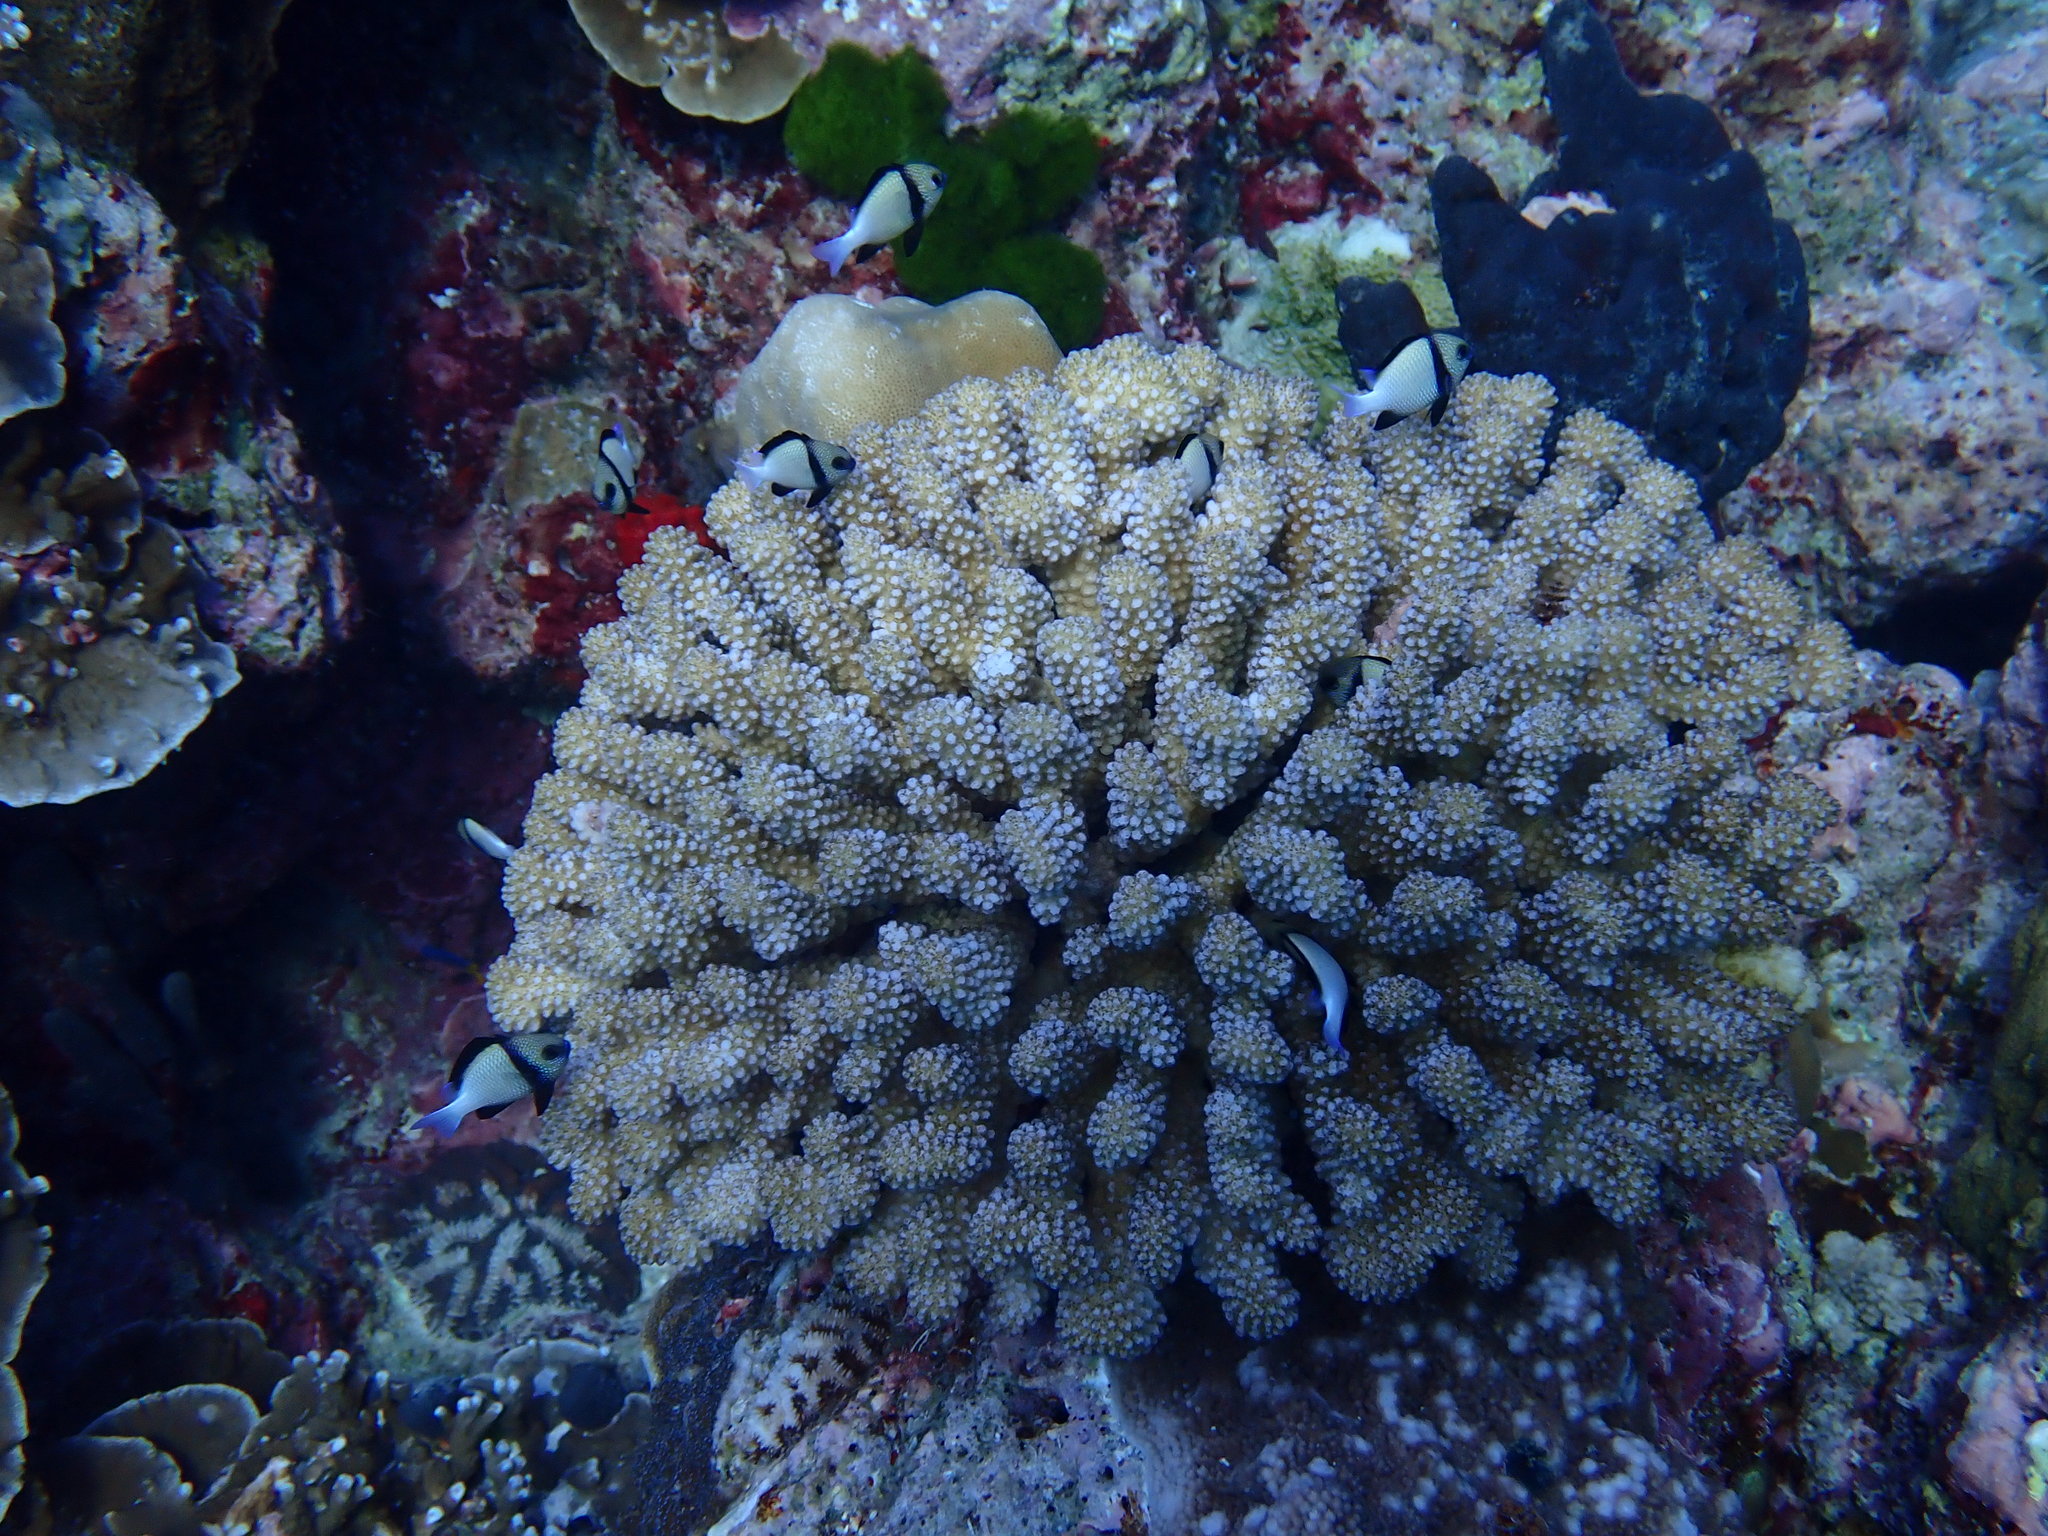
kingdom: Animalia
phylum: Chordata
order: Perciformes
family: Pomacentridae
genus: Dascyllus
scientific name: Dascyllus carneus
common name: Indian dascyllus
